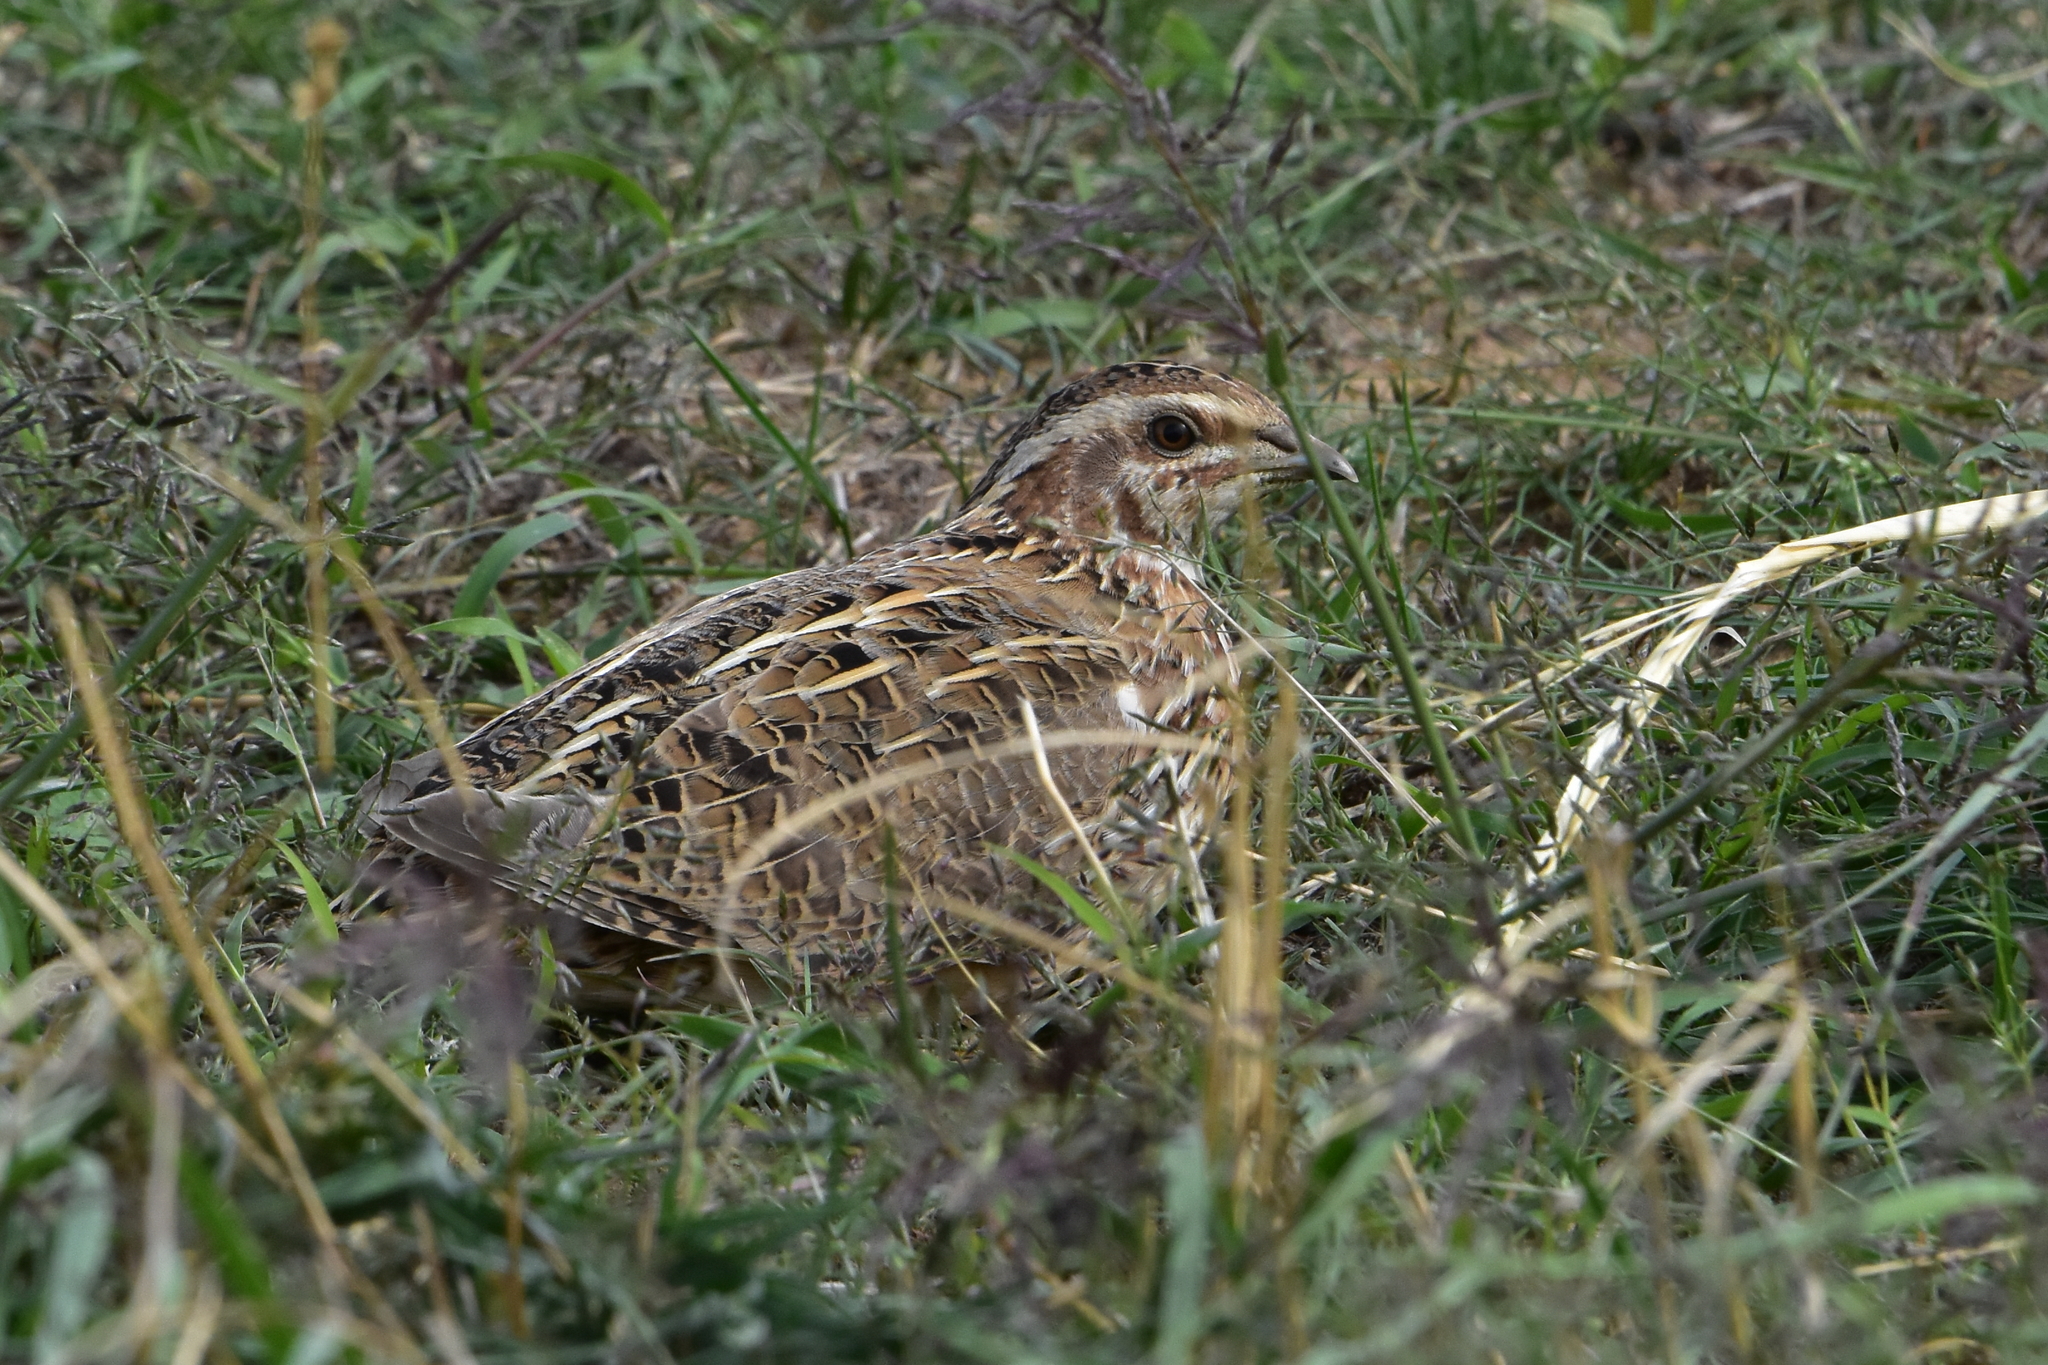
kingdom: Animalia
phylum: Chordata
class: Aves
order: Galliformes
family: Phasianidae
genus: Coturnix
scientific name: Coturnix coturnix
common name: Common quail
